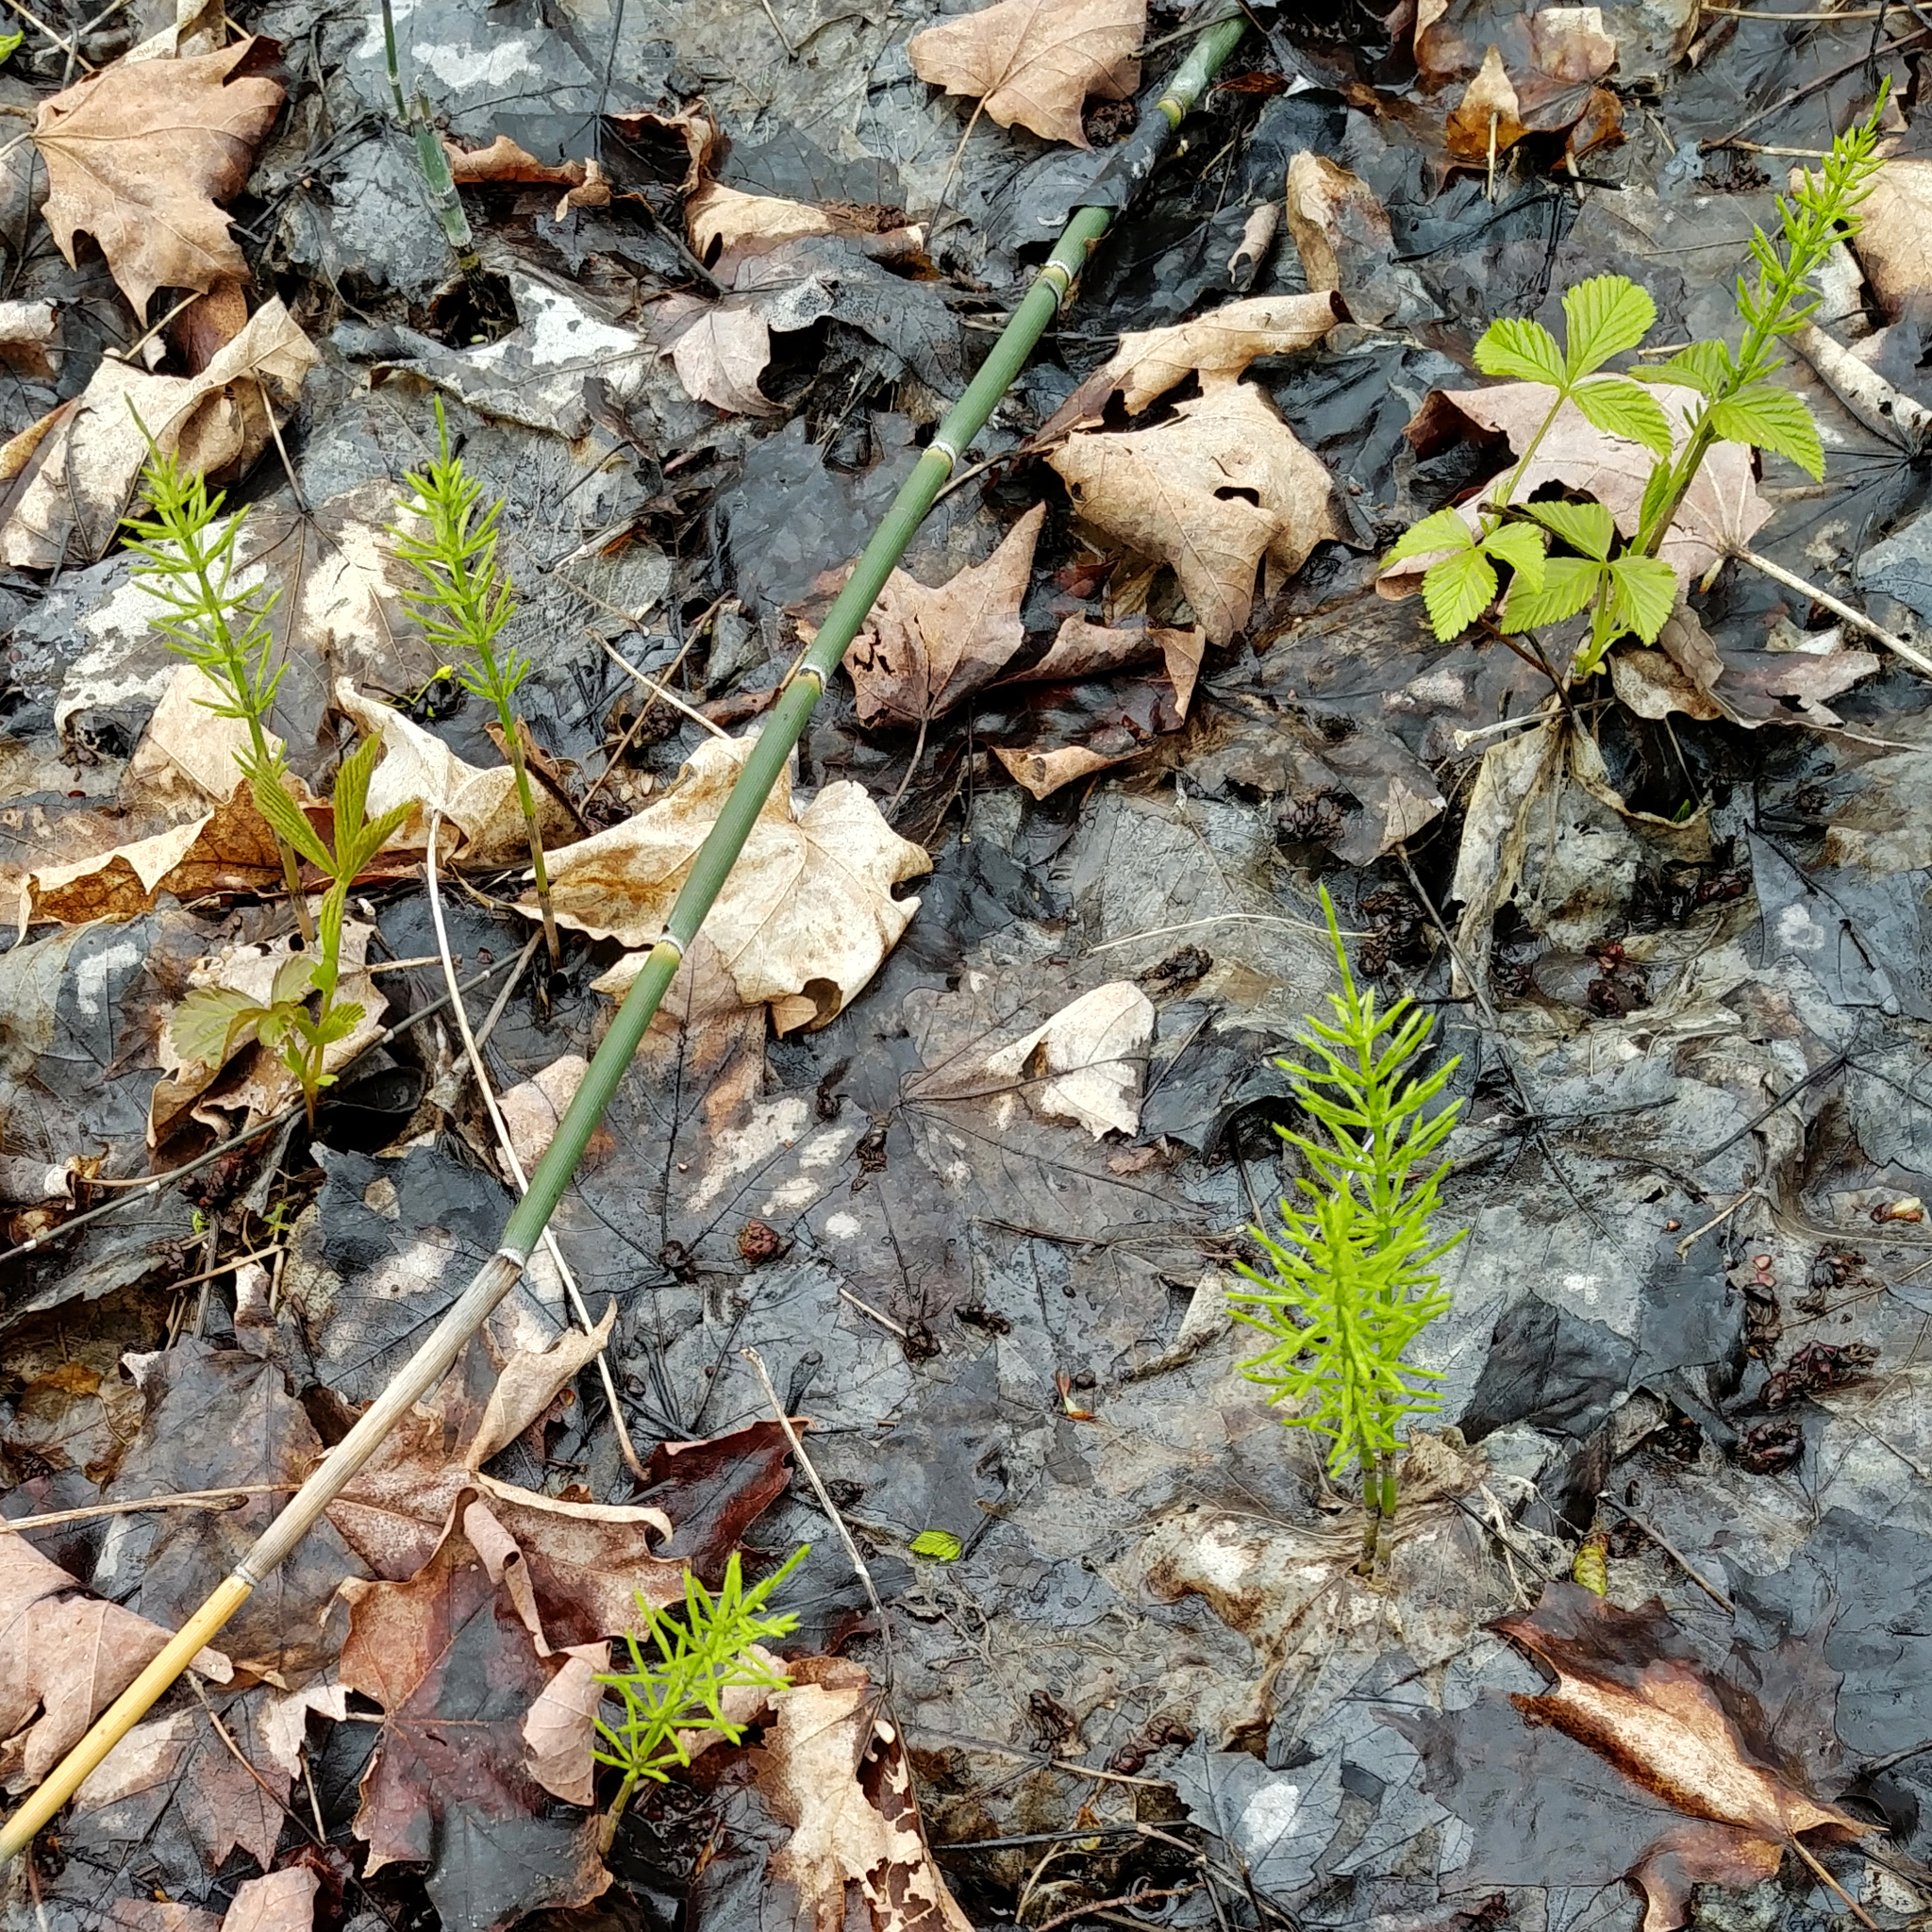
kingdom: Plantae
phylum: Tracheophyta
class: Polypodiopsida
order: Equisetales
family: Equisetaceae
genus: Equisetum
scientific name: Equisetum arvense
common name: Field horsetail
